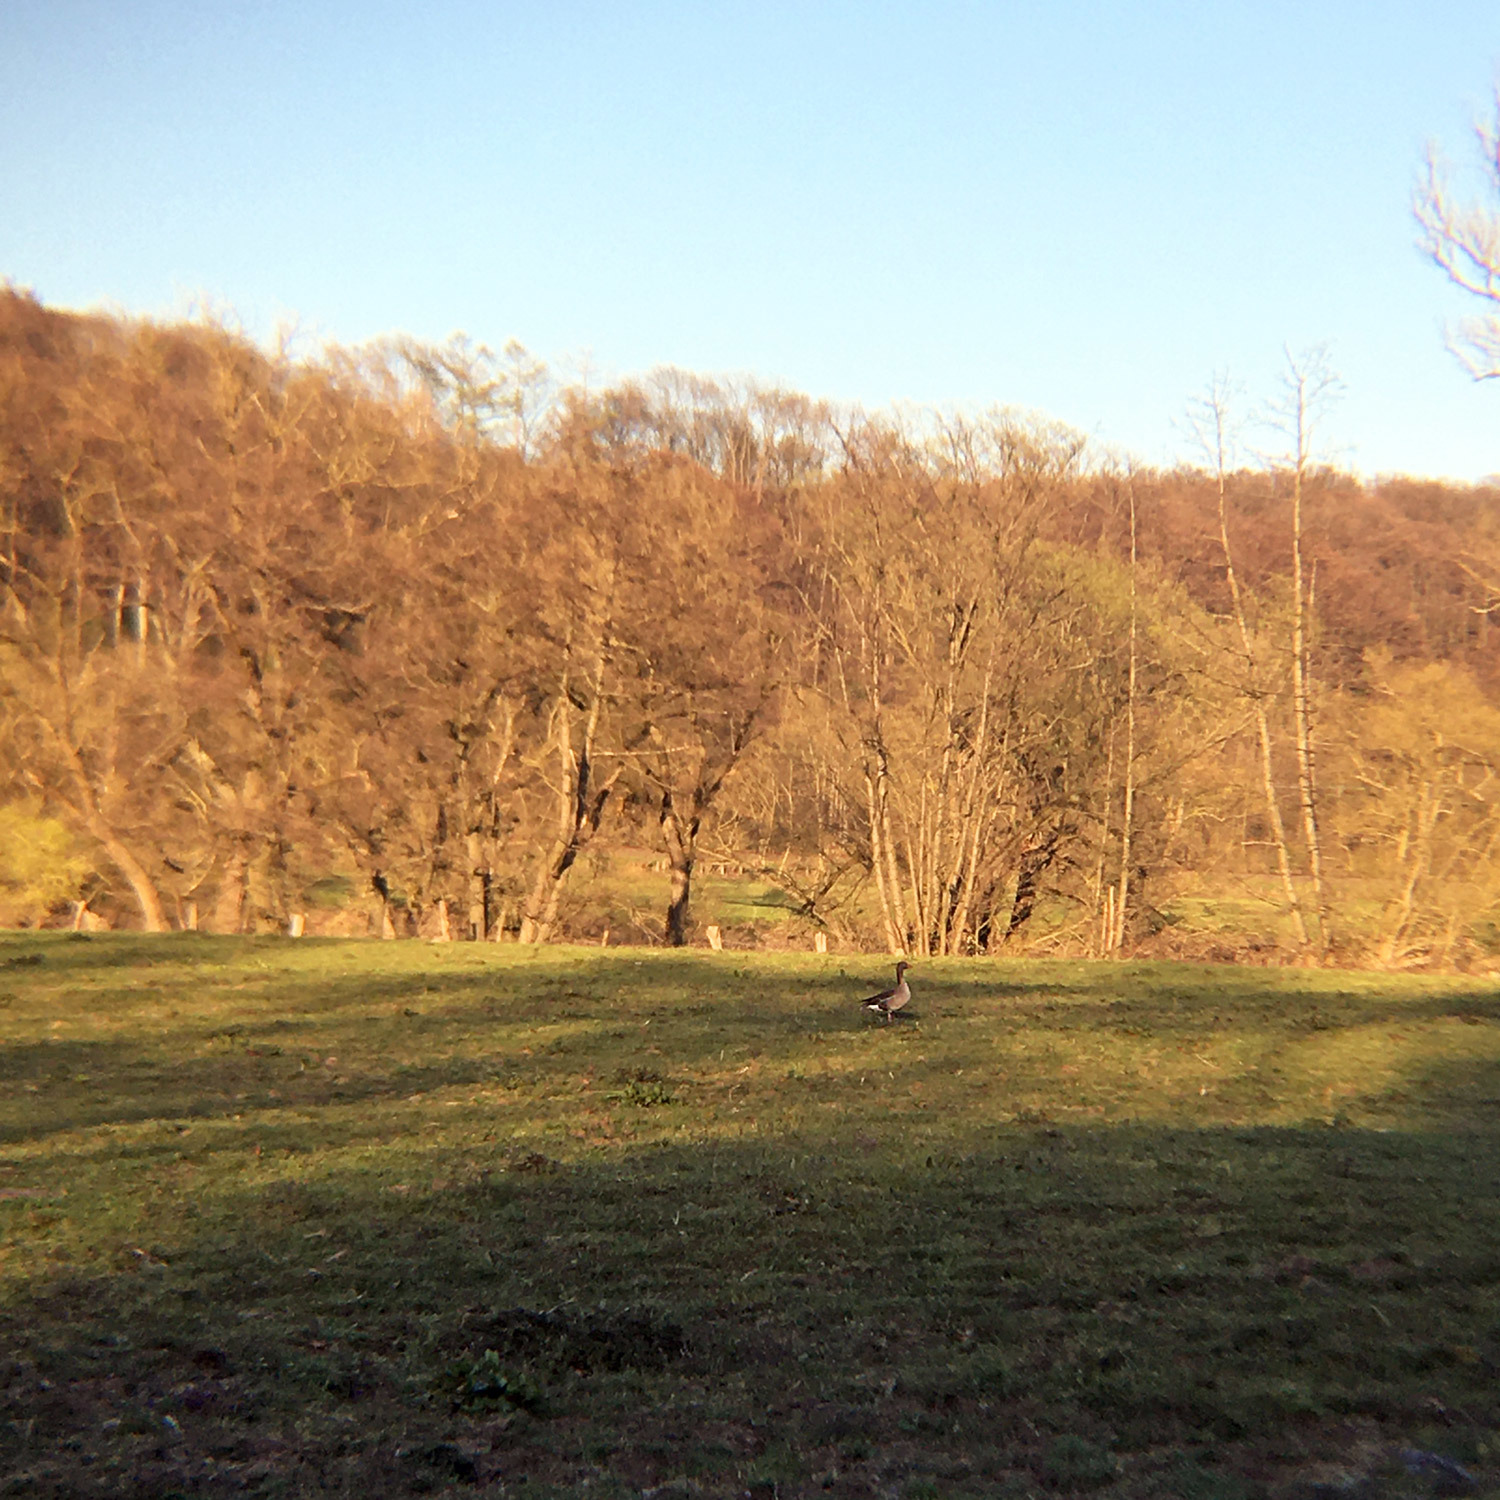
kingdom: Animalia
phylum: Chordata
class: Aves
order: Anseriformes
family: Anatidae
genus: Anser
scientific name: Anser anser
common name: Greylag goose
